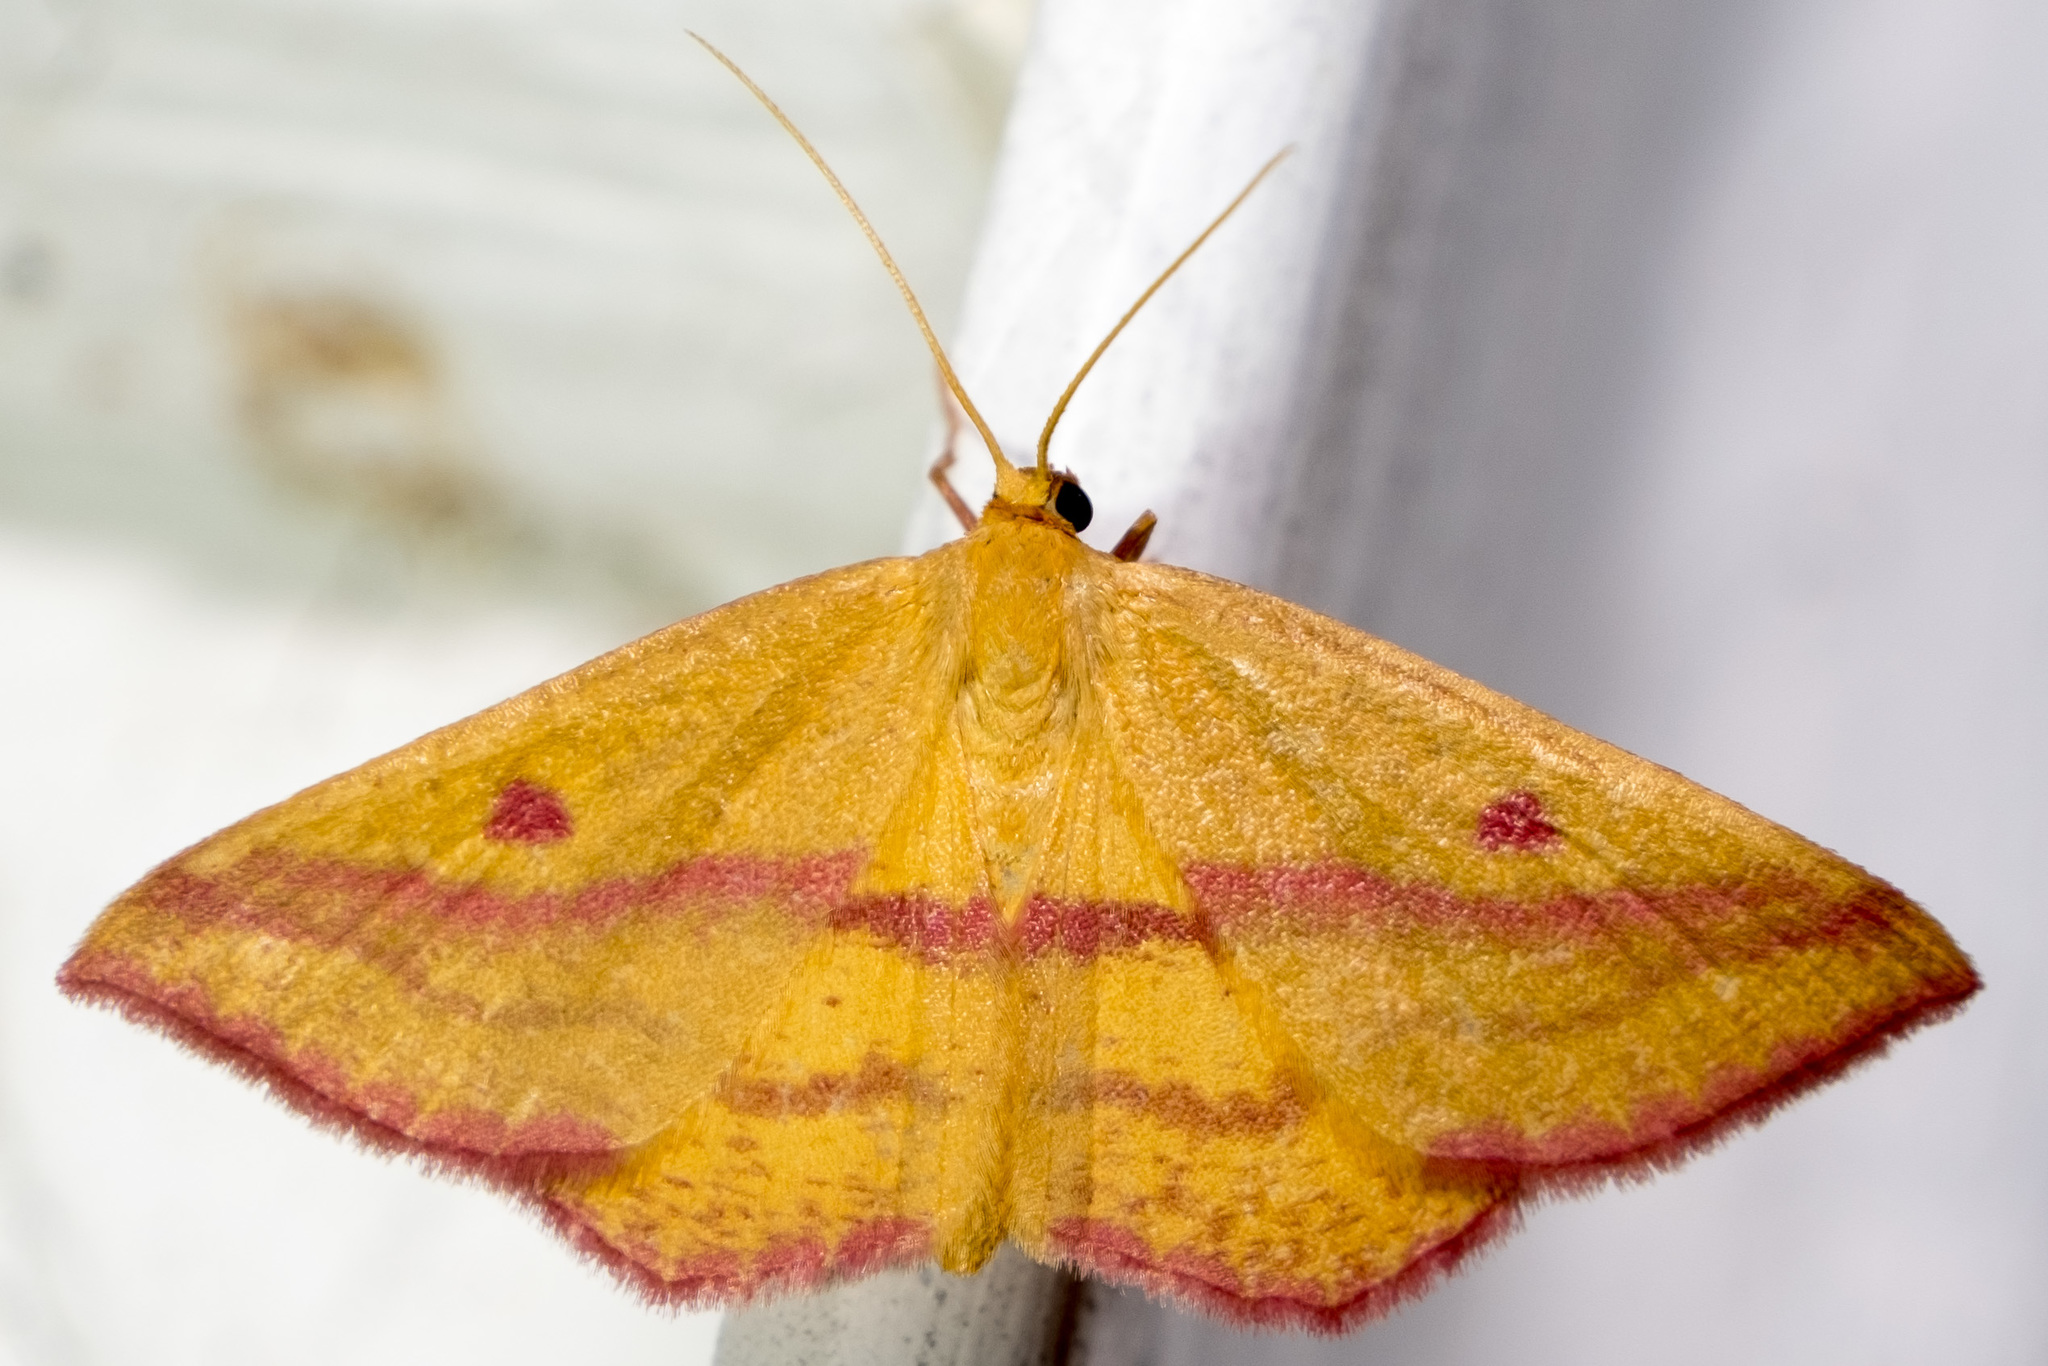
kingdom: Animalia
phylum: Arthropoda
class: Insecta
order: Lepidoptera
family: Geometridae
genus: Haematopis
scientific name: Haematopis grataria
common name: Chickweed geometer
